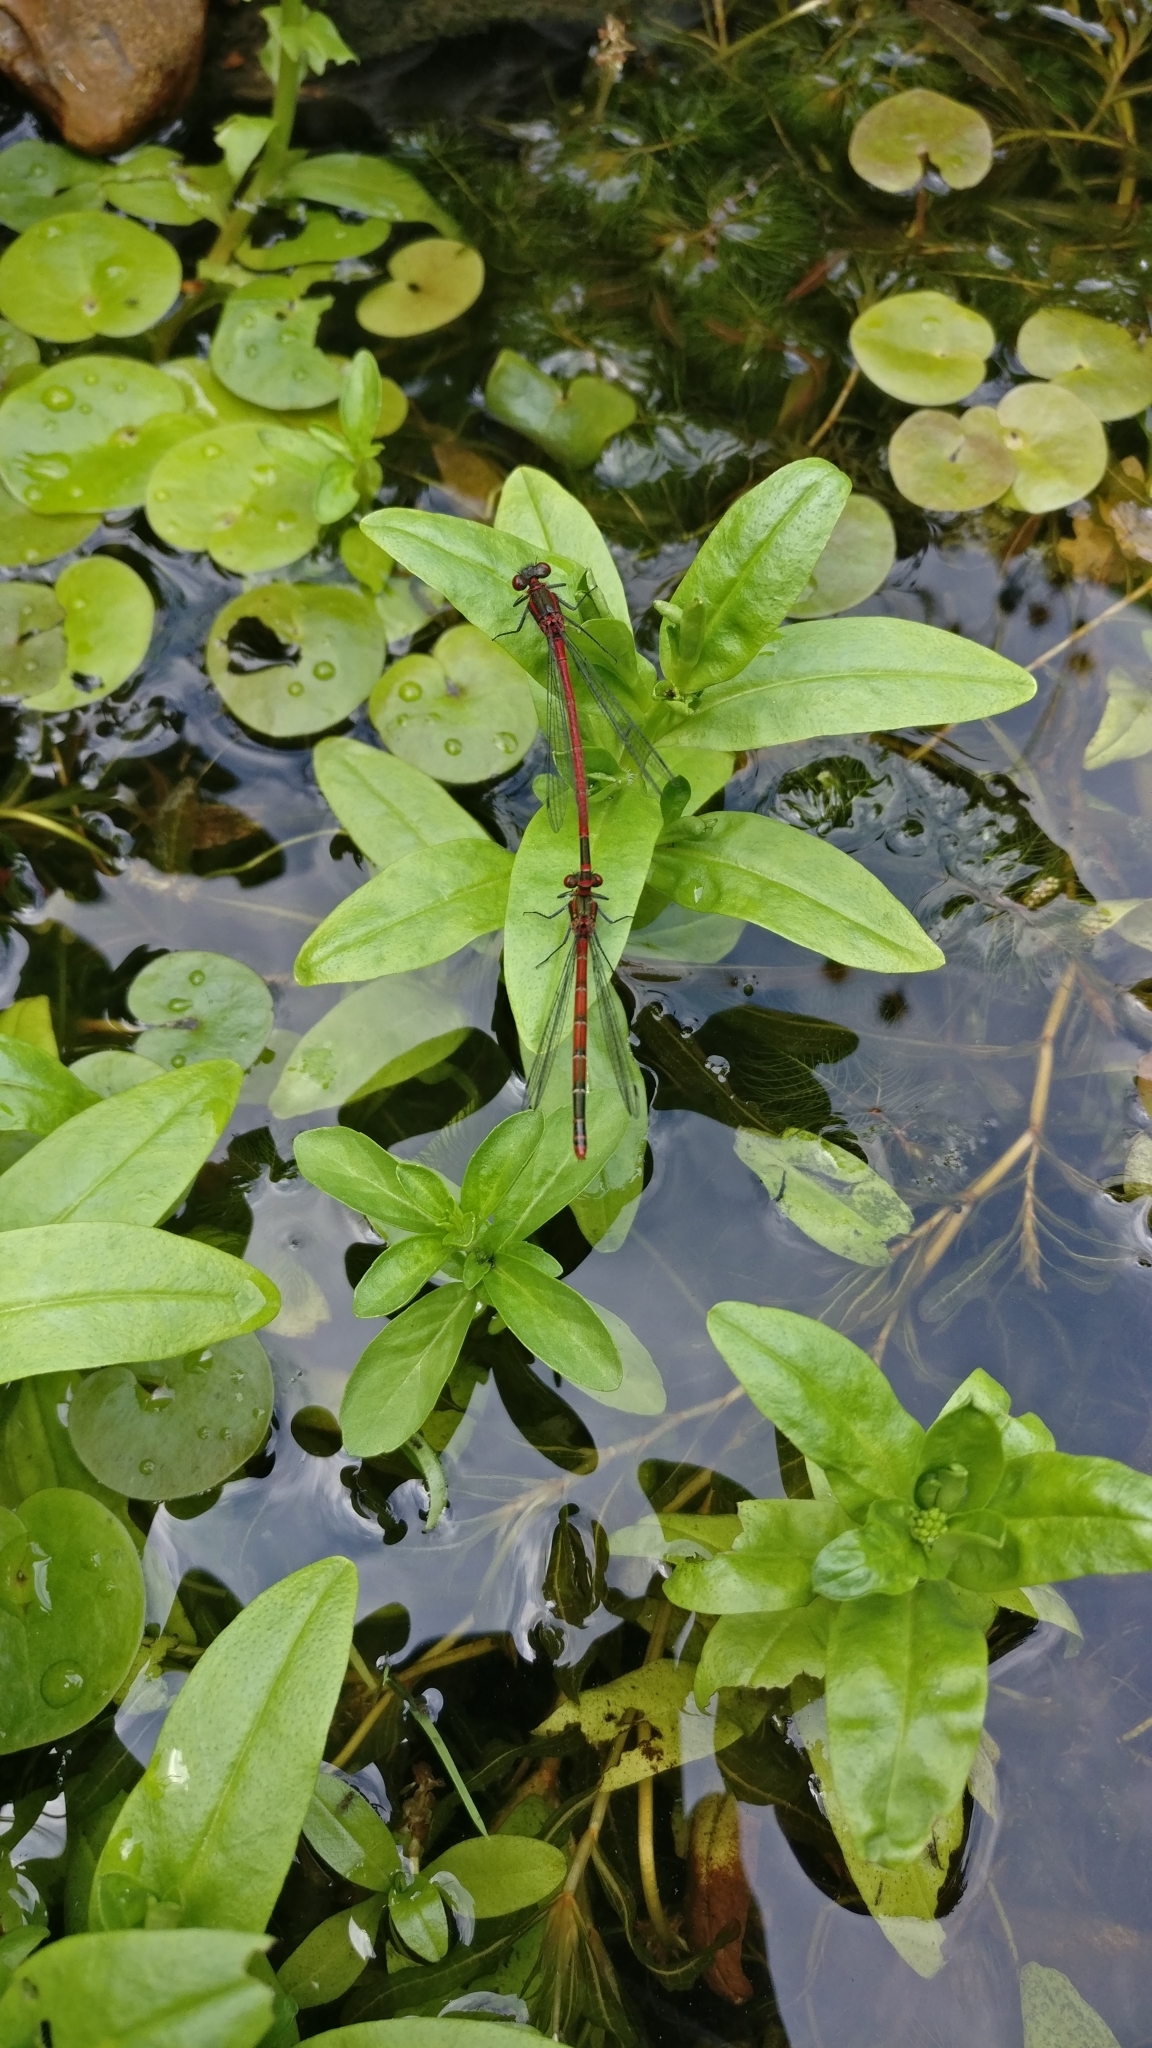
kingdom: Animalia
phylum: Arthropoda
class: Insecta
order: Odonata
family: Coenagrionidae
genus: Pyrrhosoma
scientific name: Pyrrhosoma nymphula
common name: Large red damsel
